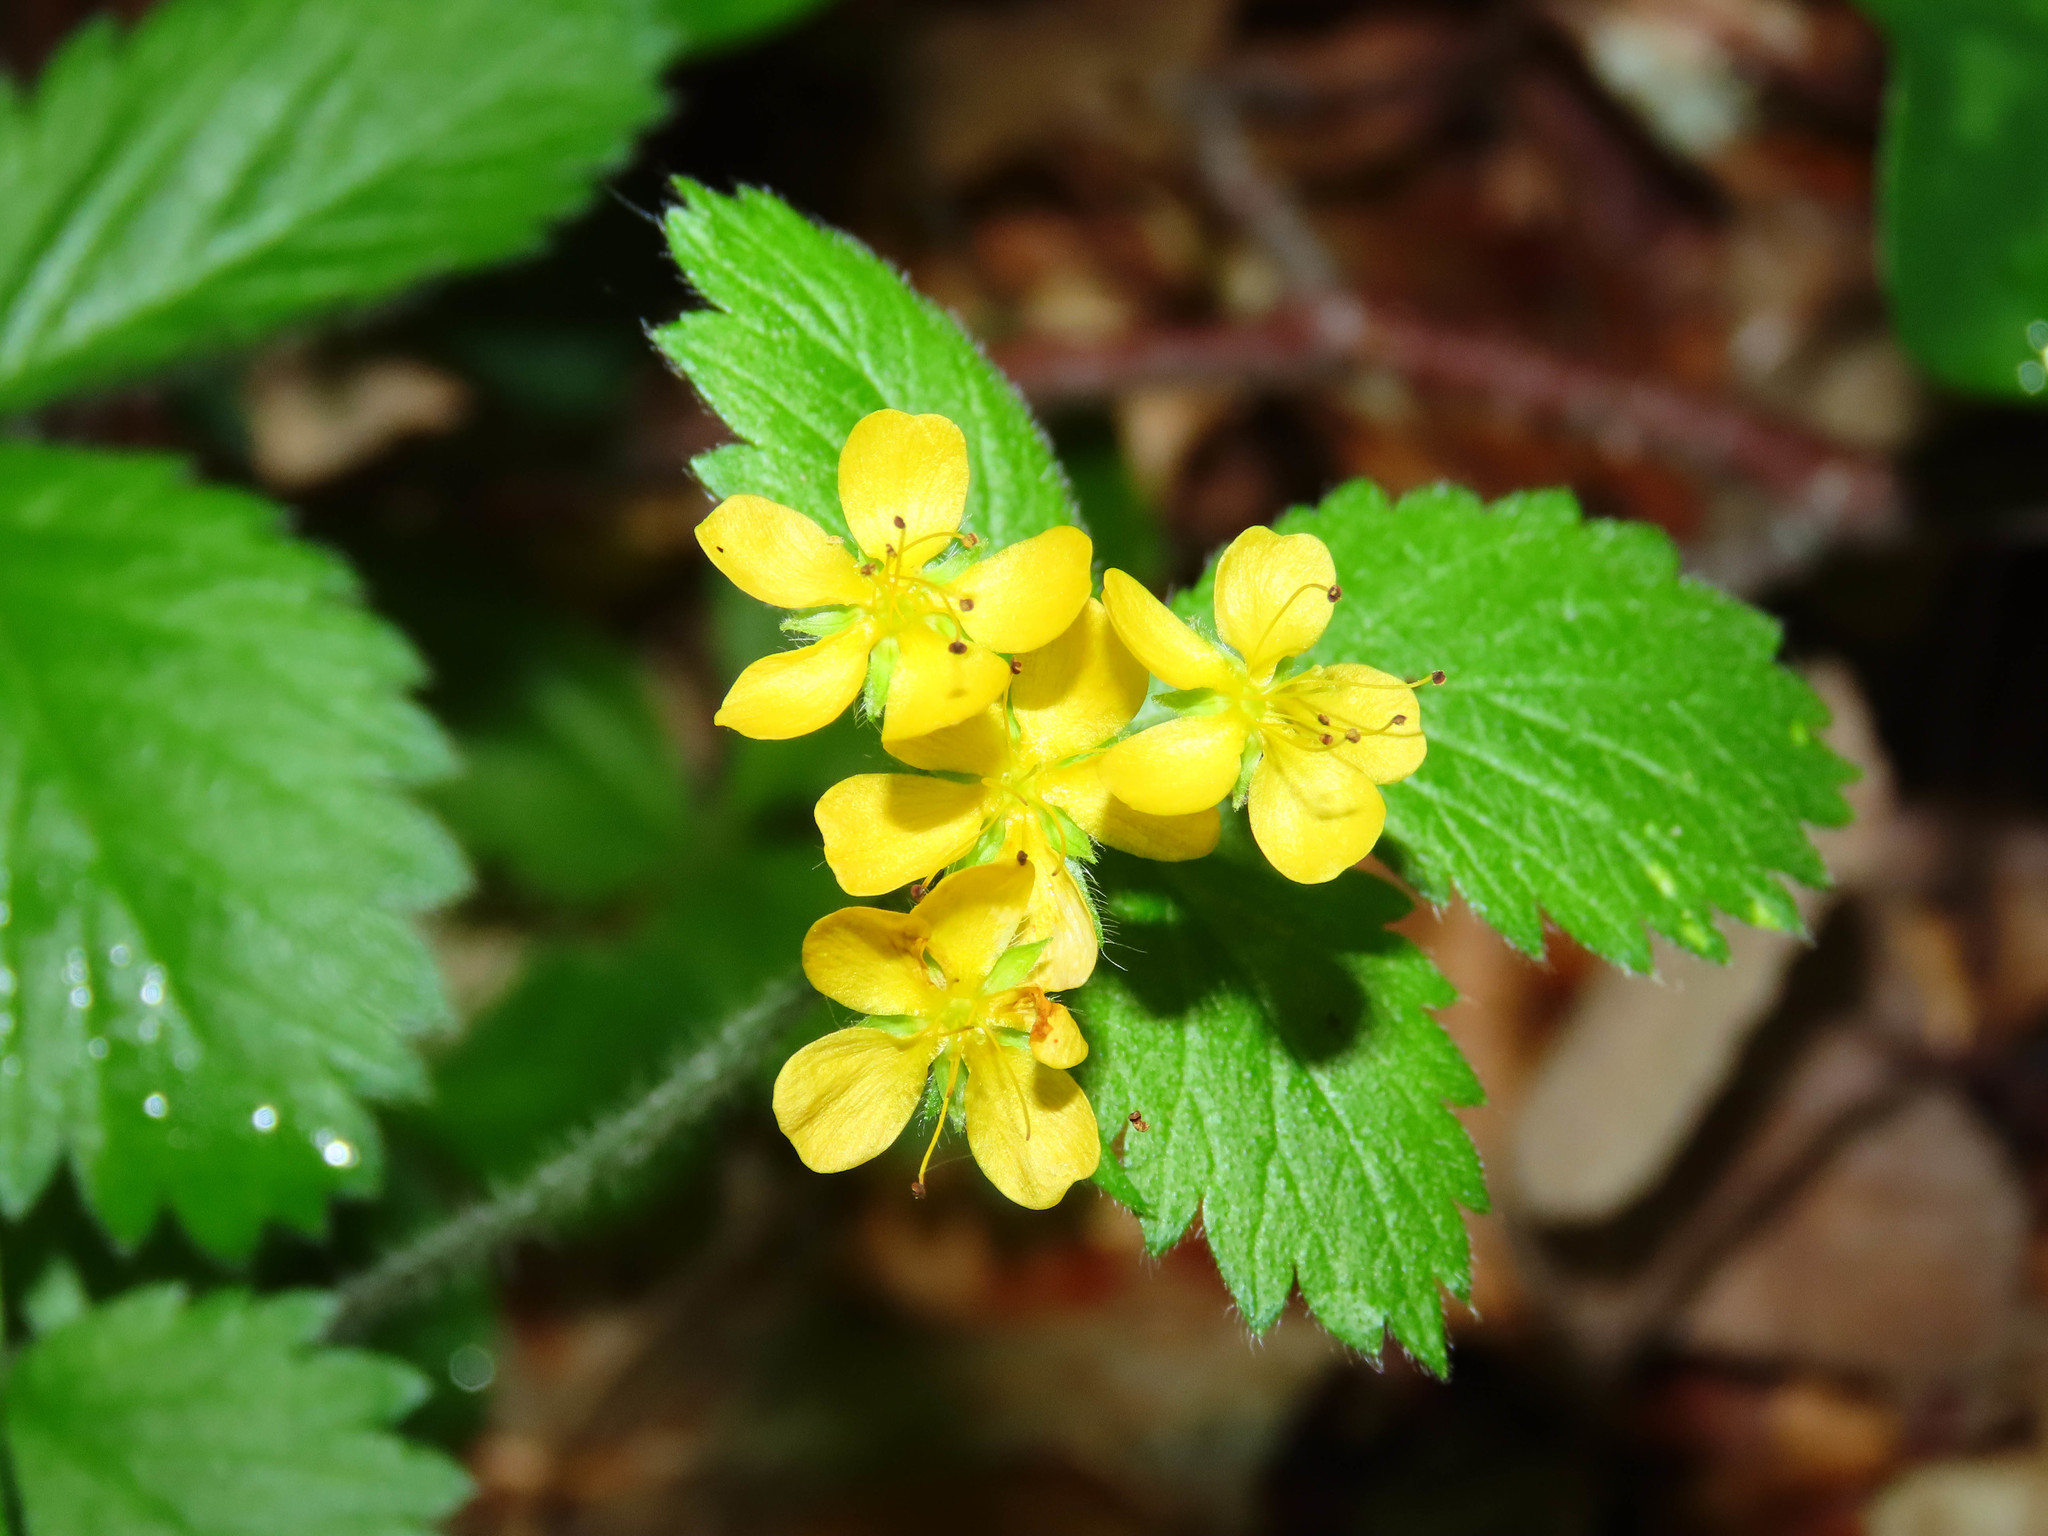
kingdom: Plantae
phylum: Tracheophyta
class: Magnoliopsida
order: Rosales
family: Rosaceae
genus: Aremonia
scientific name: Aremonia agrimonoides
